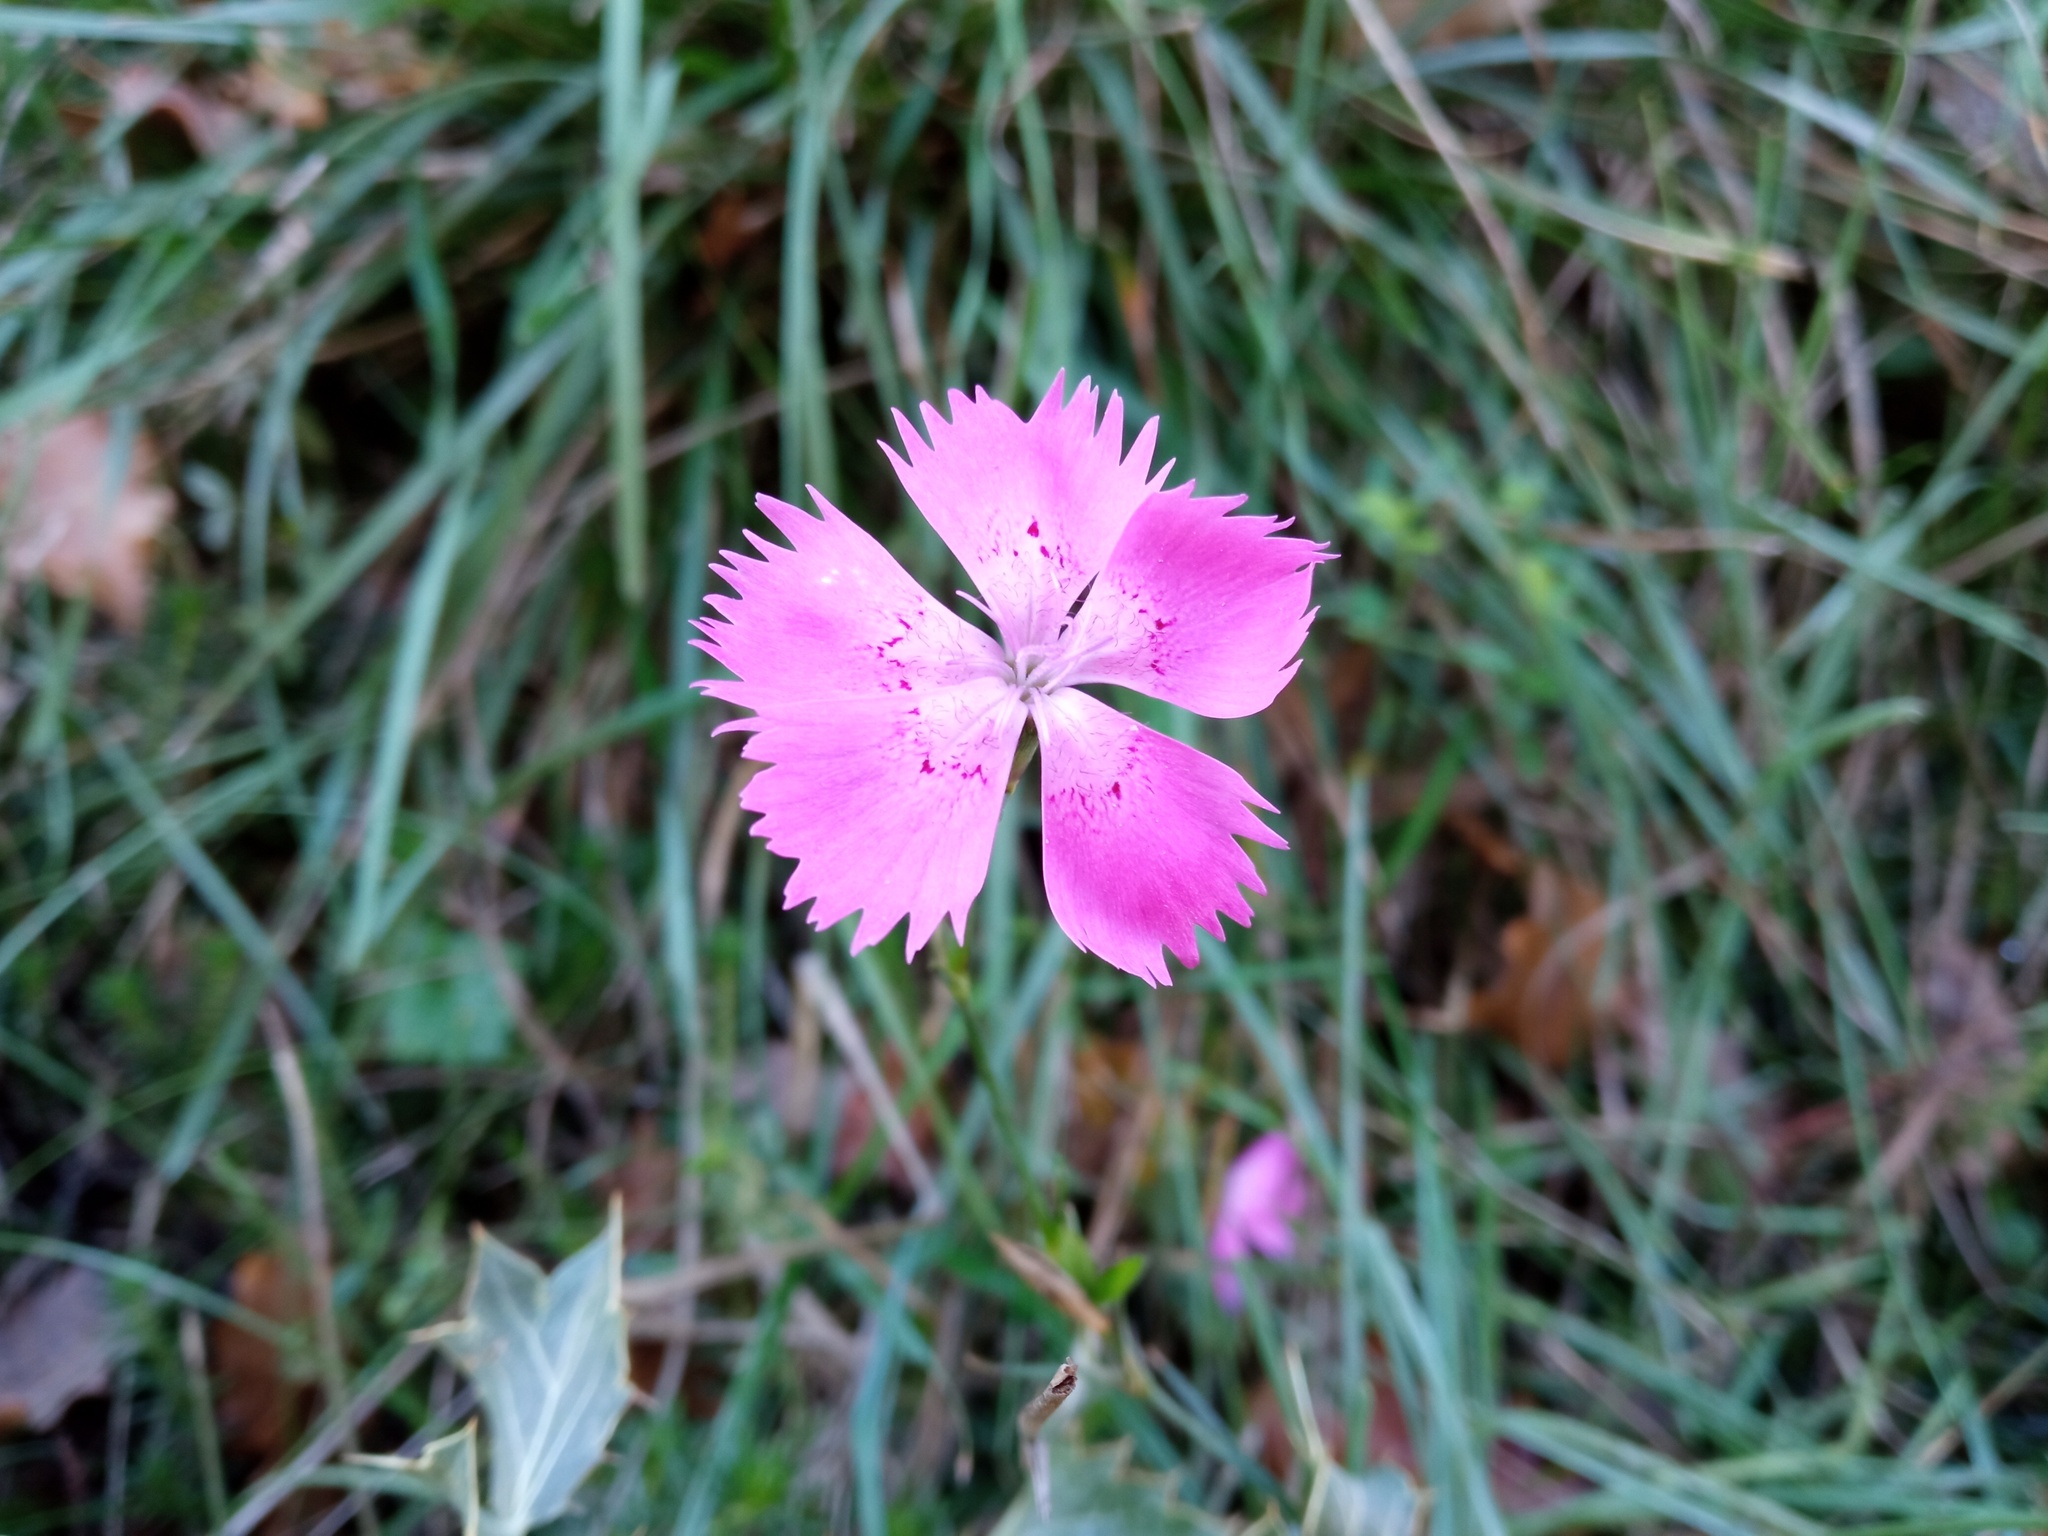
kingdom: Plantae
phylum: Tracheophyta
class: Magnoliopsida
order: Caryophyllales
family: Caryophyllaceae
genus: Dianthus
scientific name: Dianthus seguieri
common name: Ragged pink
